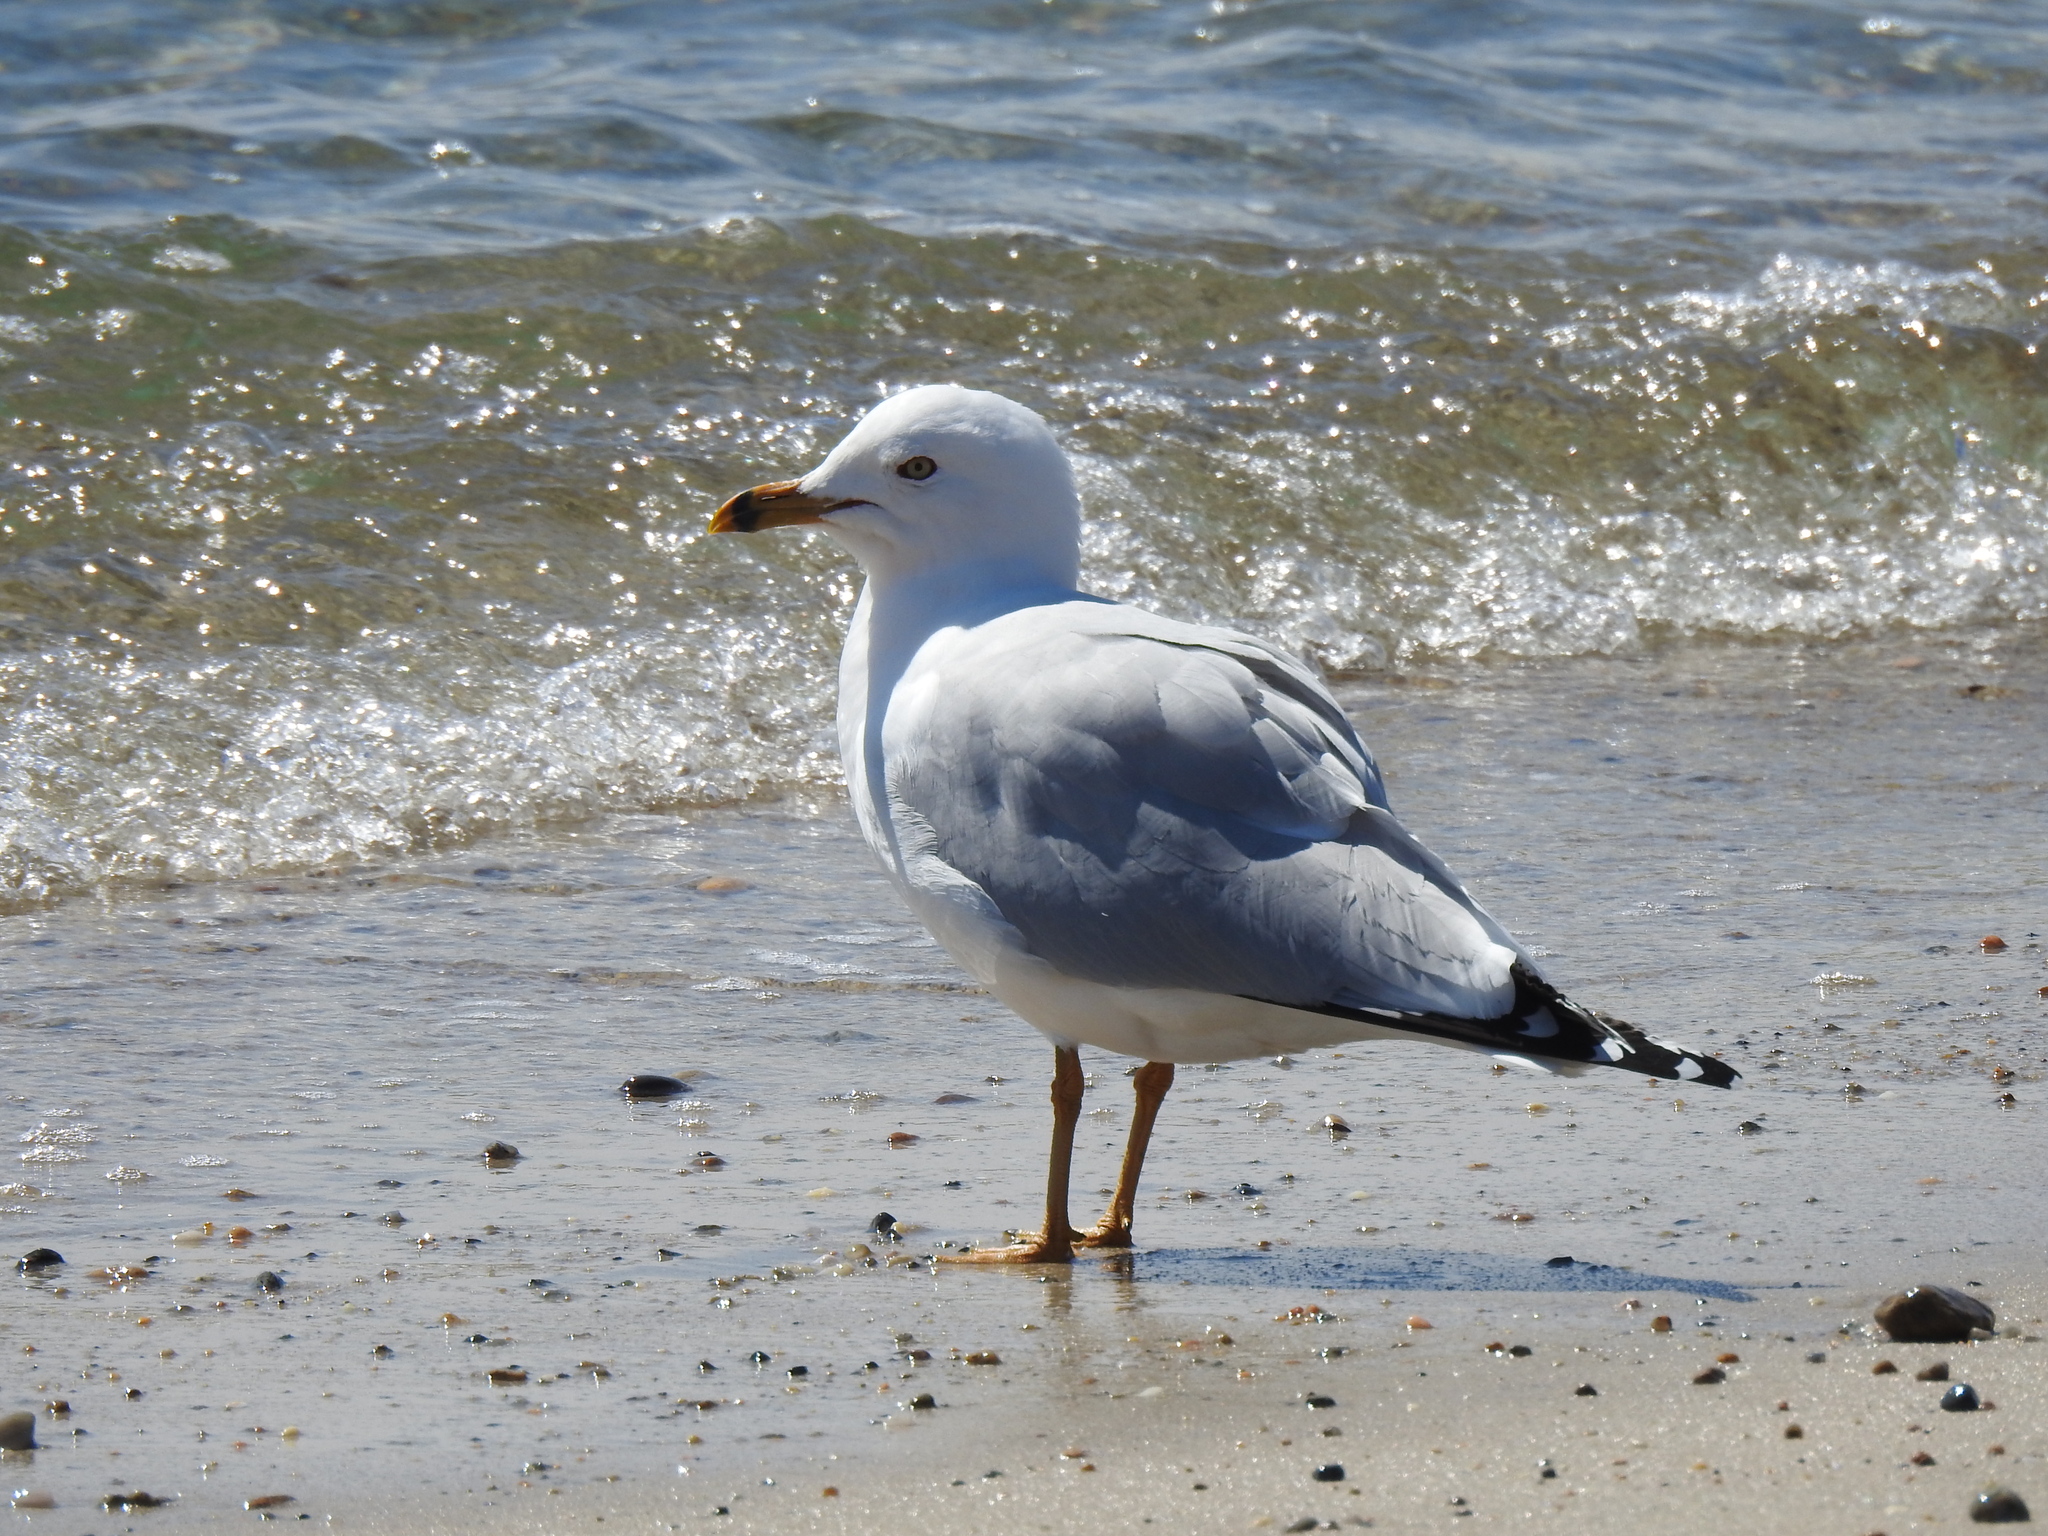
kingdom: Animalia
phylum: Chordata
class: Aves
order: Charadriiformes
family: Laridae
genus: Larus
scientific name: Larus delawarensis
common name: Ring-billed gull
